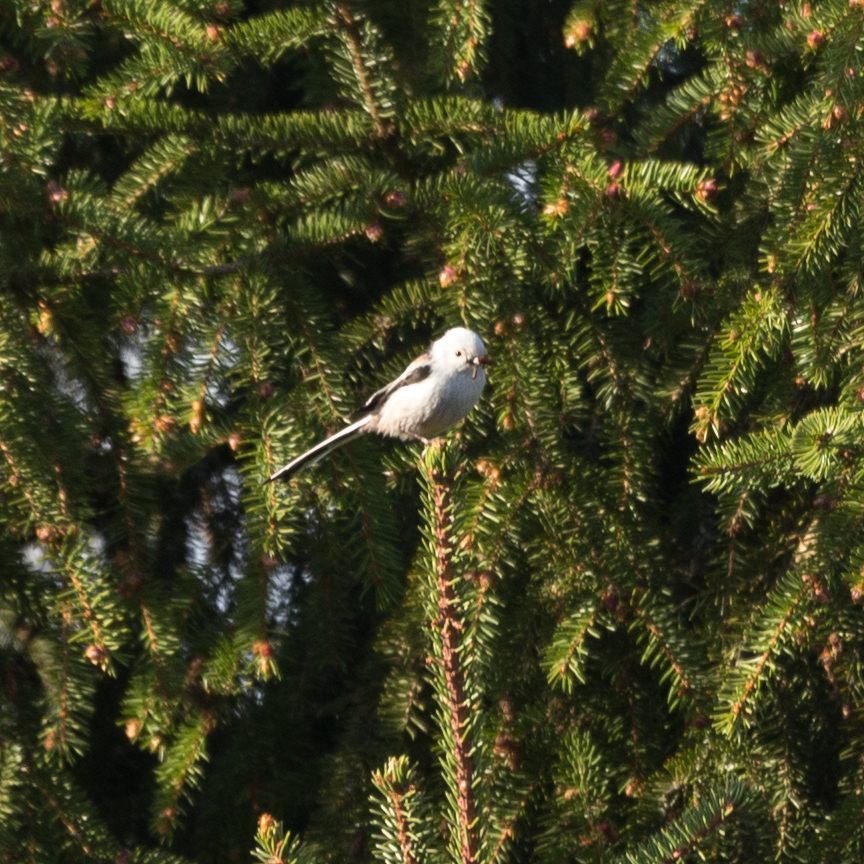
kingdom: Animalia
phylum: Chordata
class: Aves
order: Passeriformes
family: Aegithalidae
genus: Aegithalos
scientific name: Aegithalos caudatus
